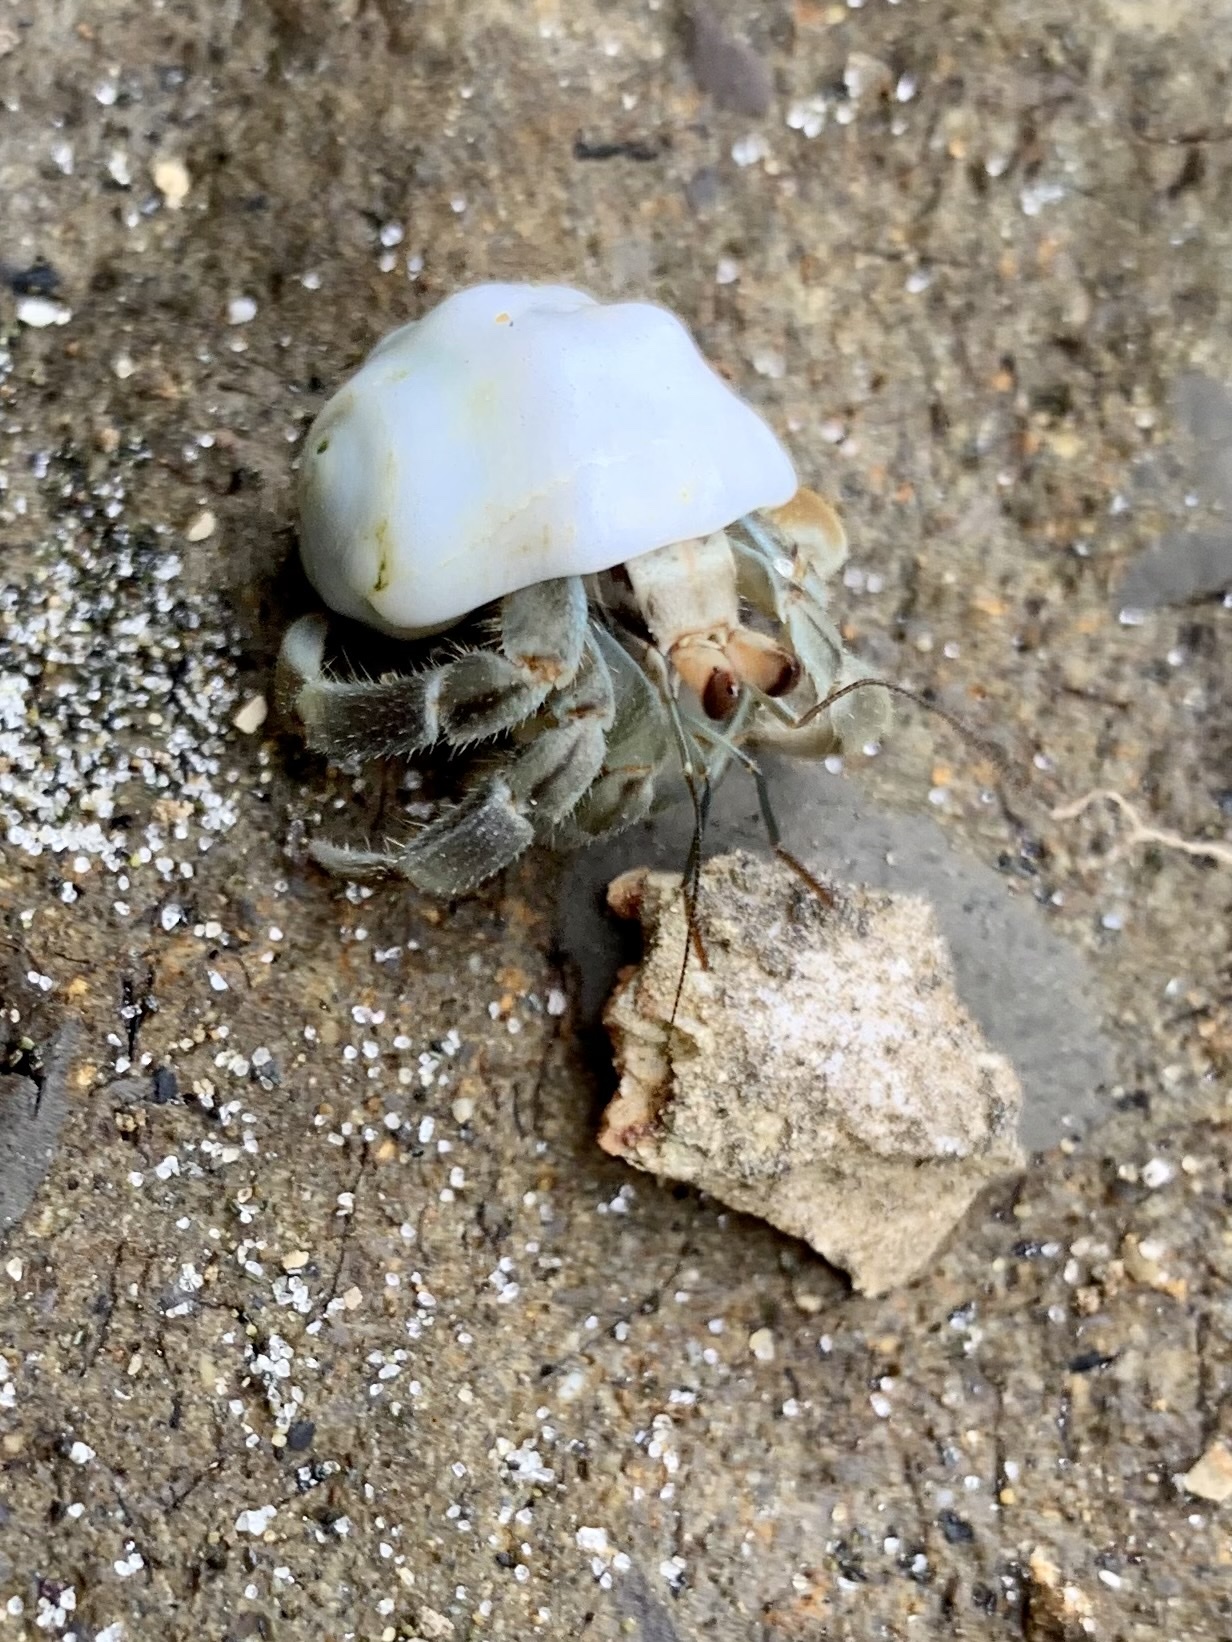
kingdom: Animalia
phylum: Arthropoda
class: Malacostraca
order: Decapoda
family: Coenobitidae
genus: Coenobita
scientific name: Coenobita compressus
